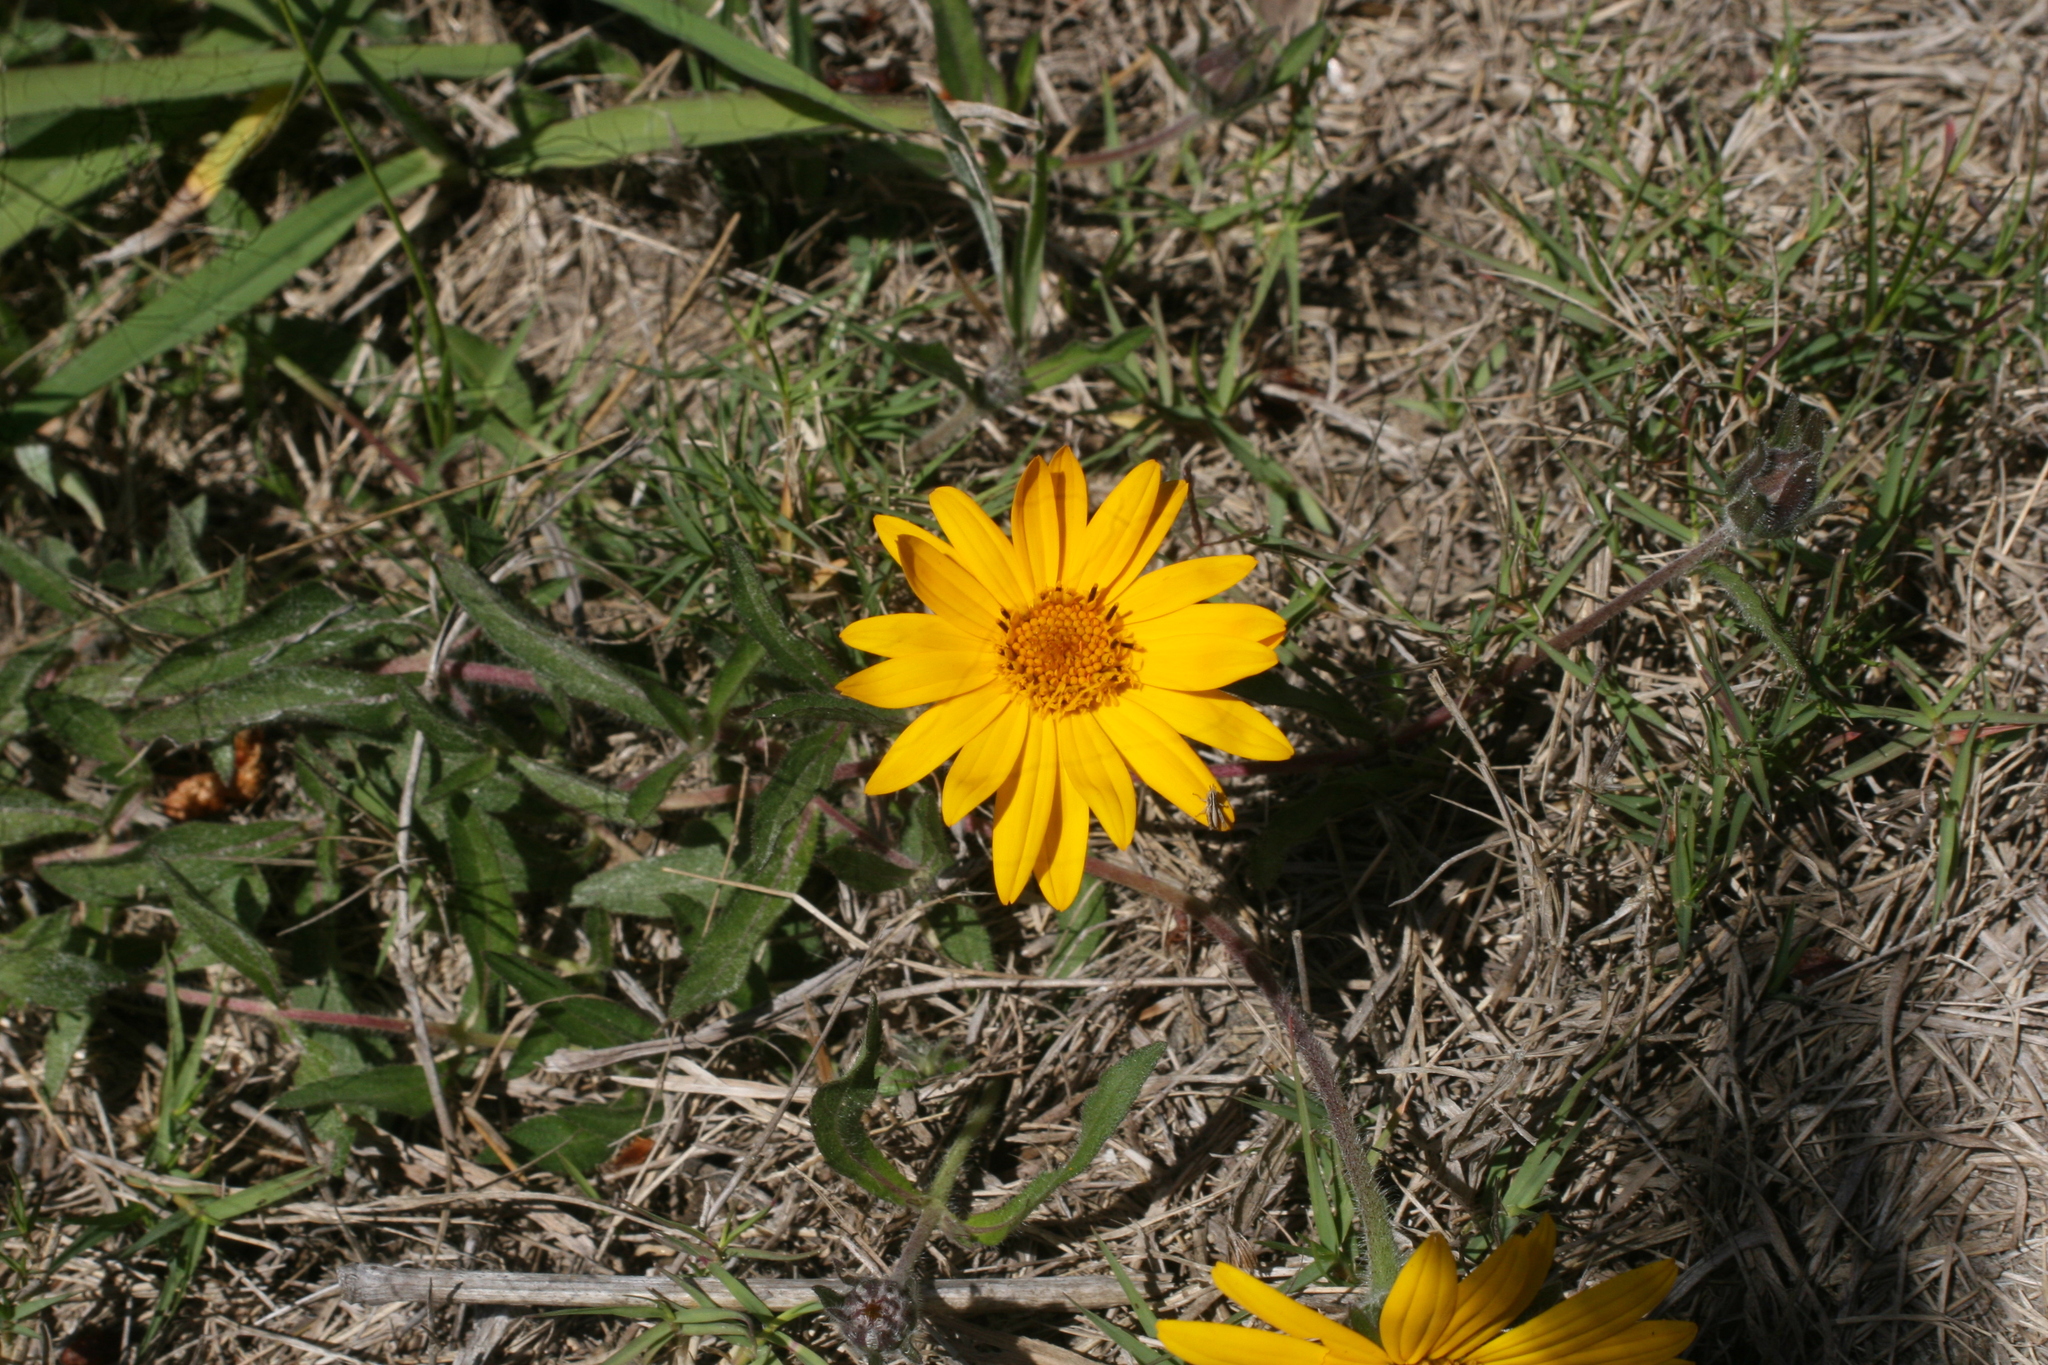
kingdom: Plantae
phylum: Tracheophyta
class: Magnoliopsida
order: Asterales
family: Asteraceae
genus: Wedelia
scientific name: Wedelia montevidensis
